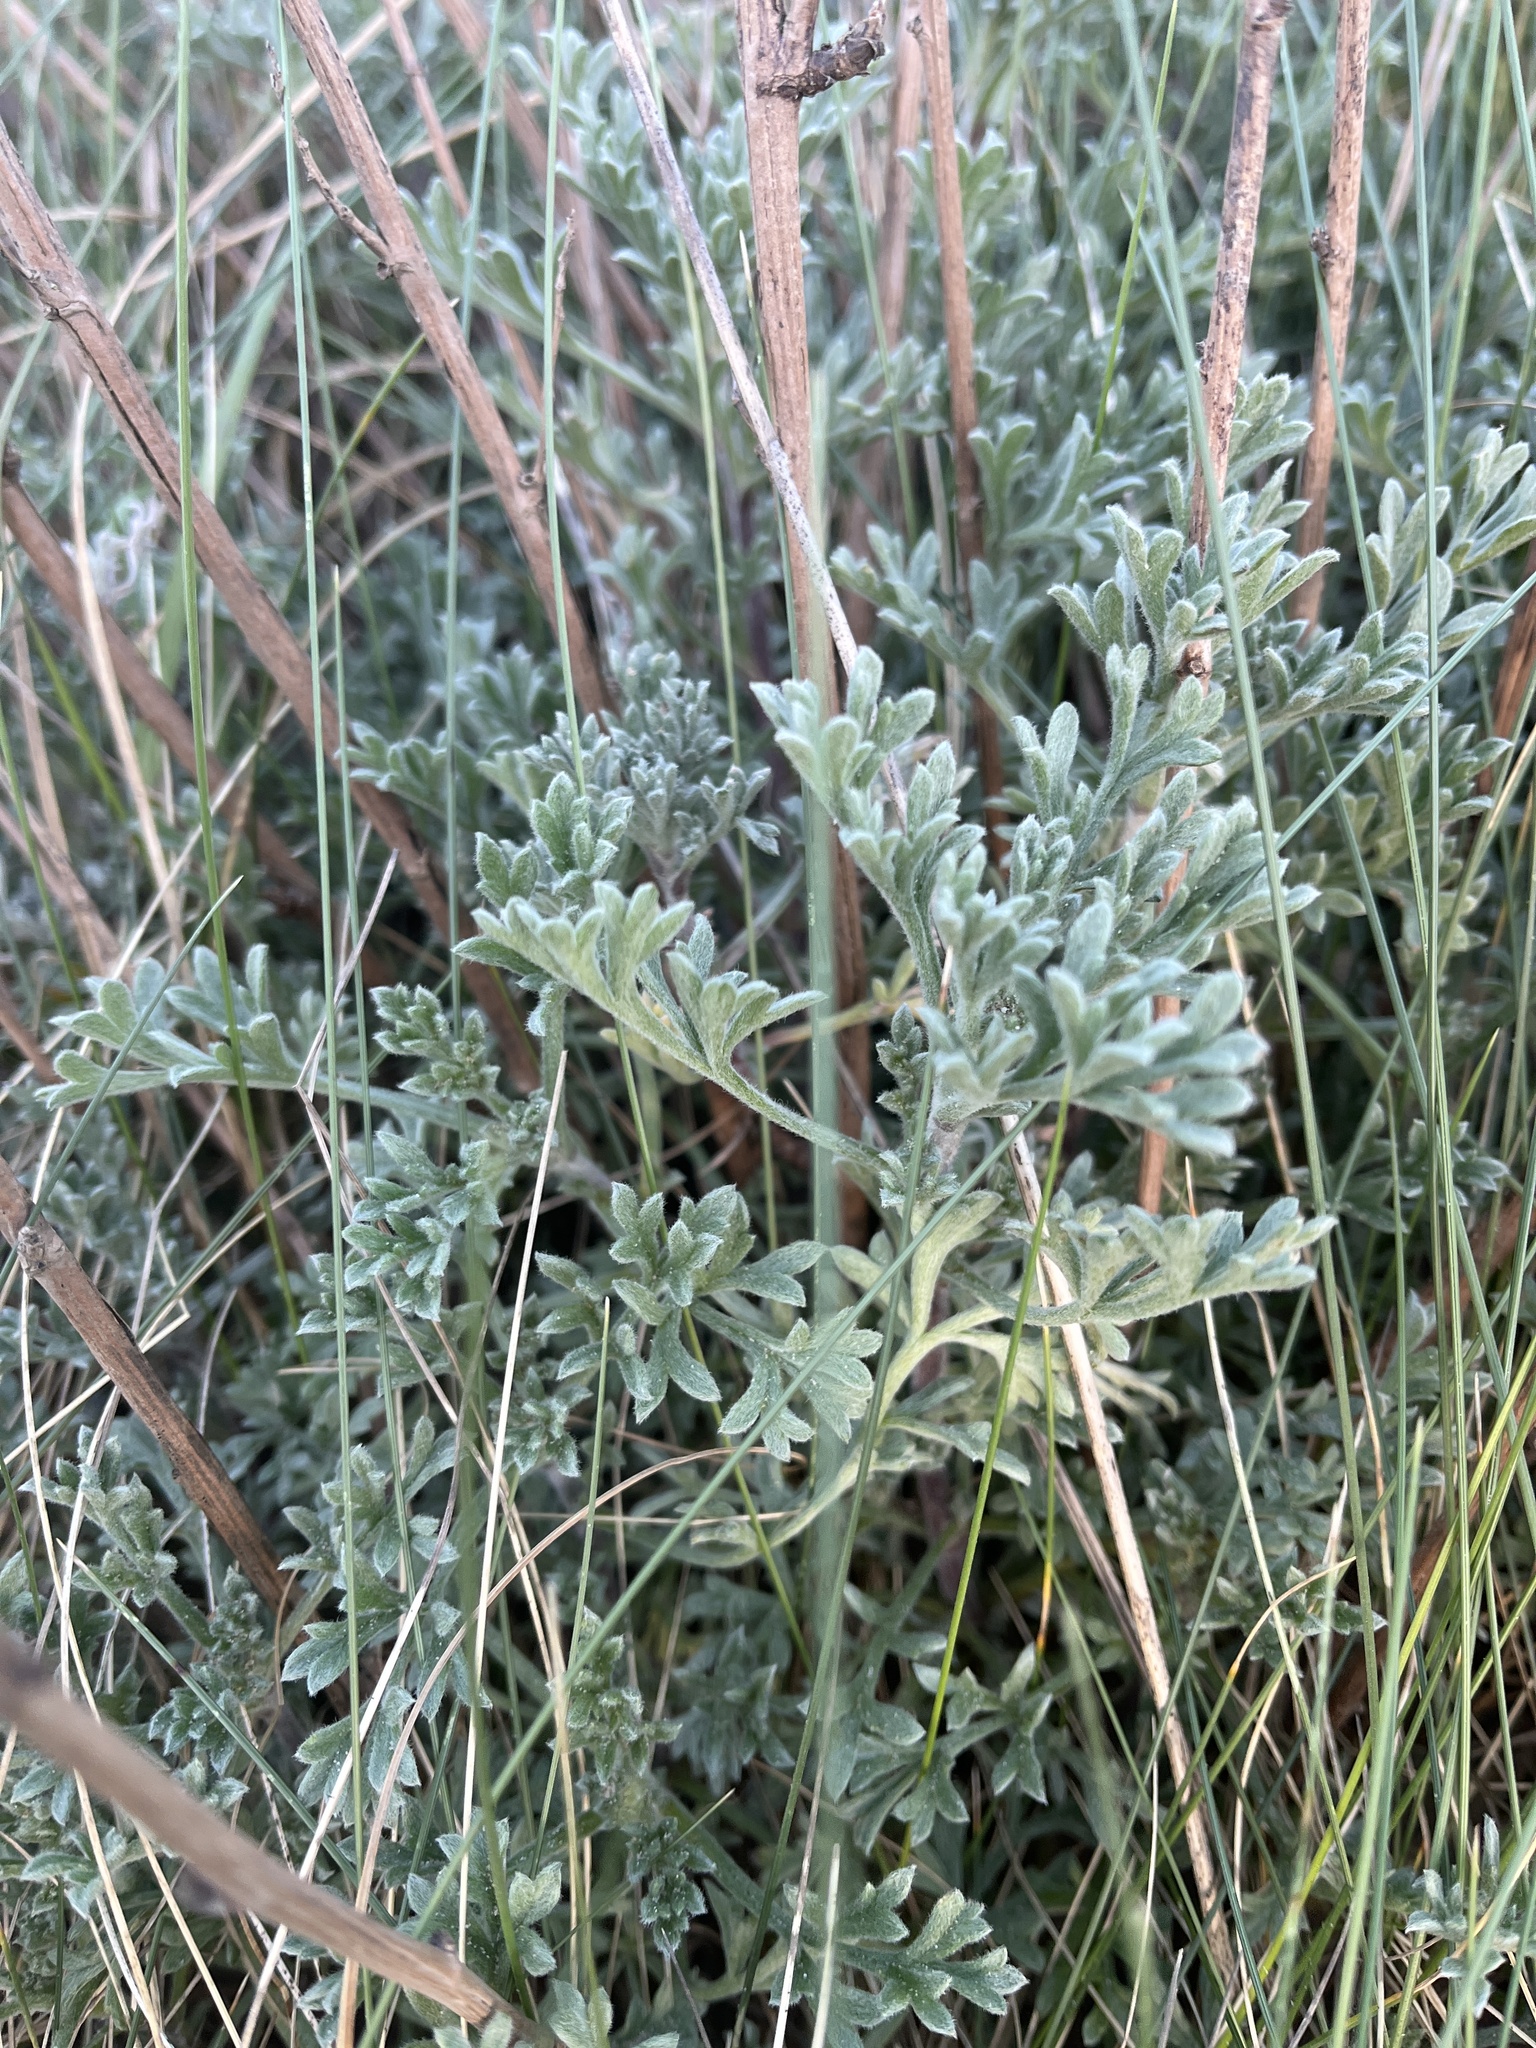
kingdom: Plantae
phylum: Tracheophyta
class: Magnoliopsida
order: Asterales
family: Asteraceae
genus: Artemisia
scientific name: Artemisia crithmifolia
